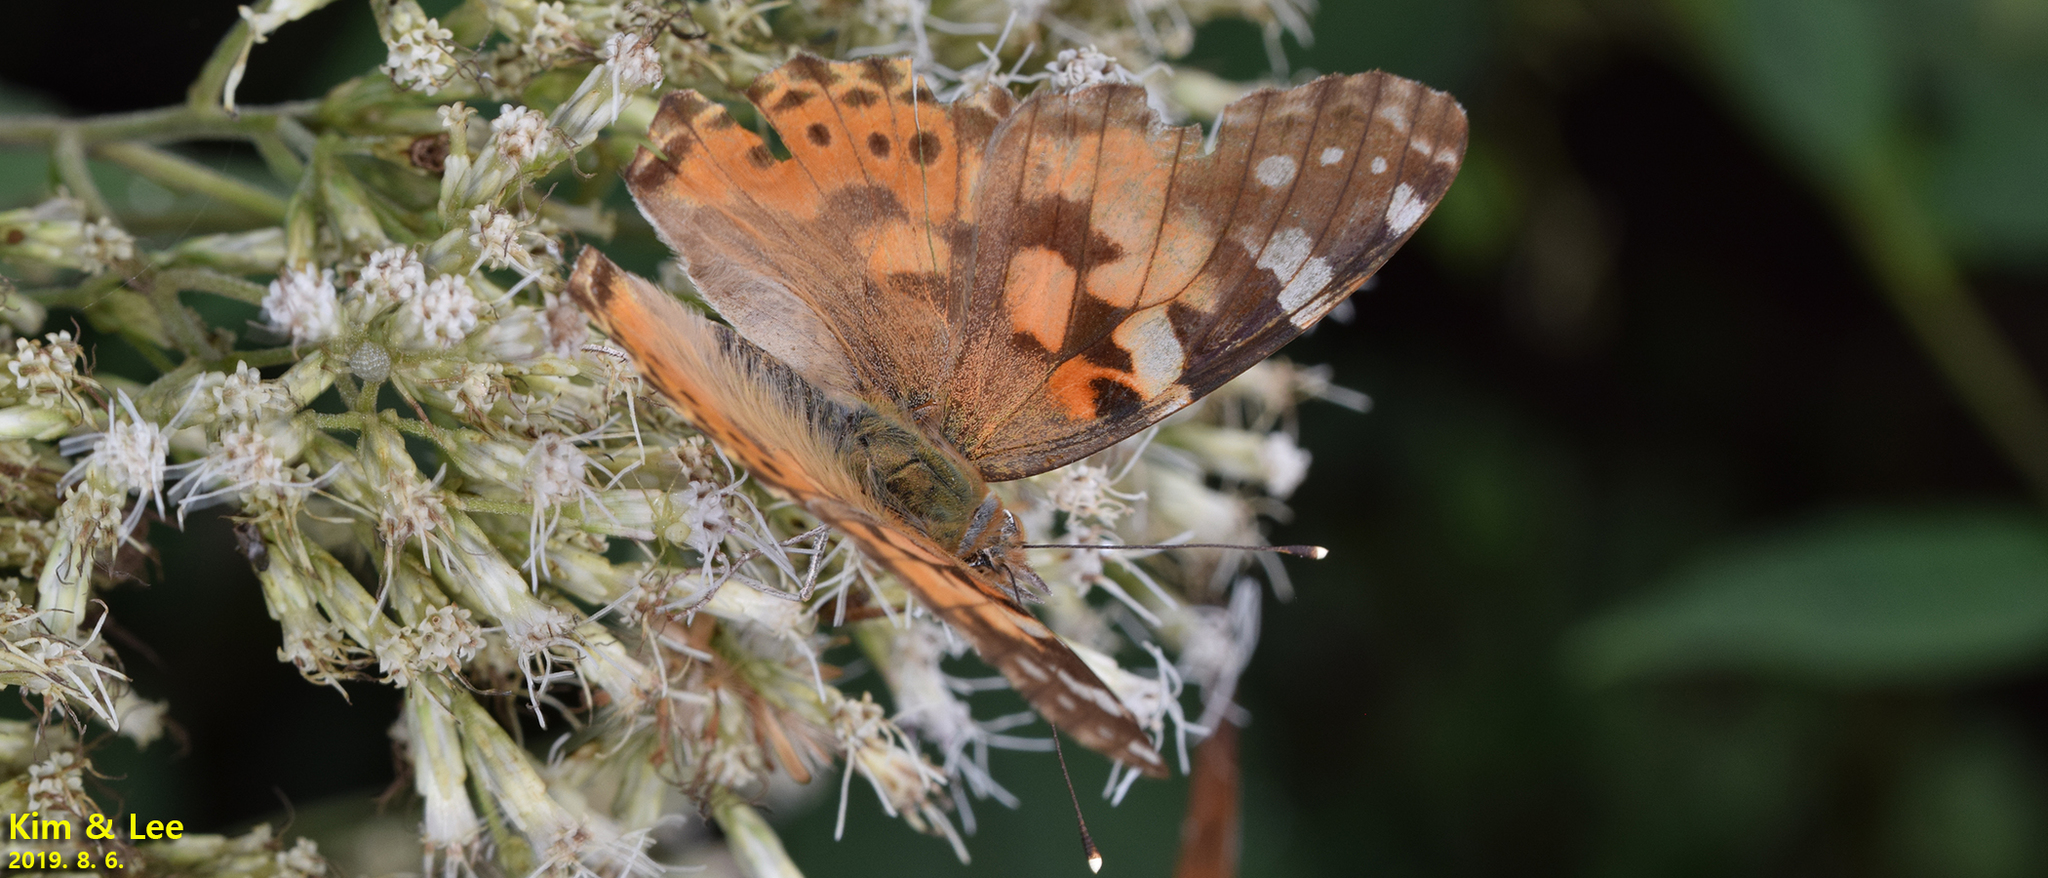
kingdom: Animalia
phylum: Arthropoda
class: Insecta
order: Lepidoptera
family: Nymphalidae
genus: Vanessa
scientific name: Vanessa cardui
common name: Painted lady
